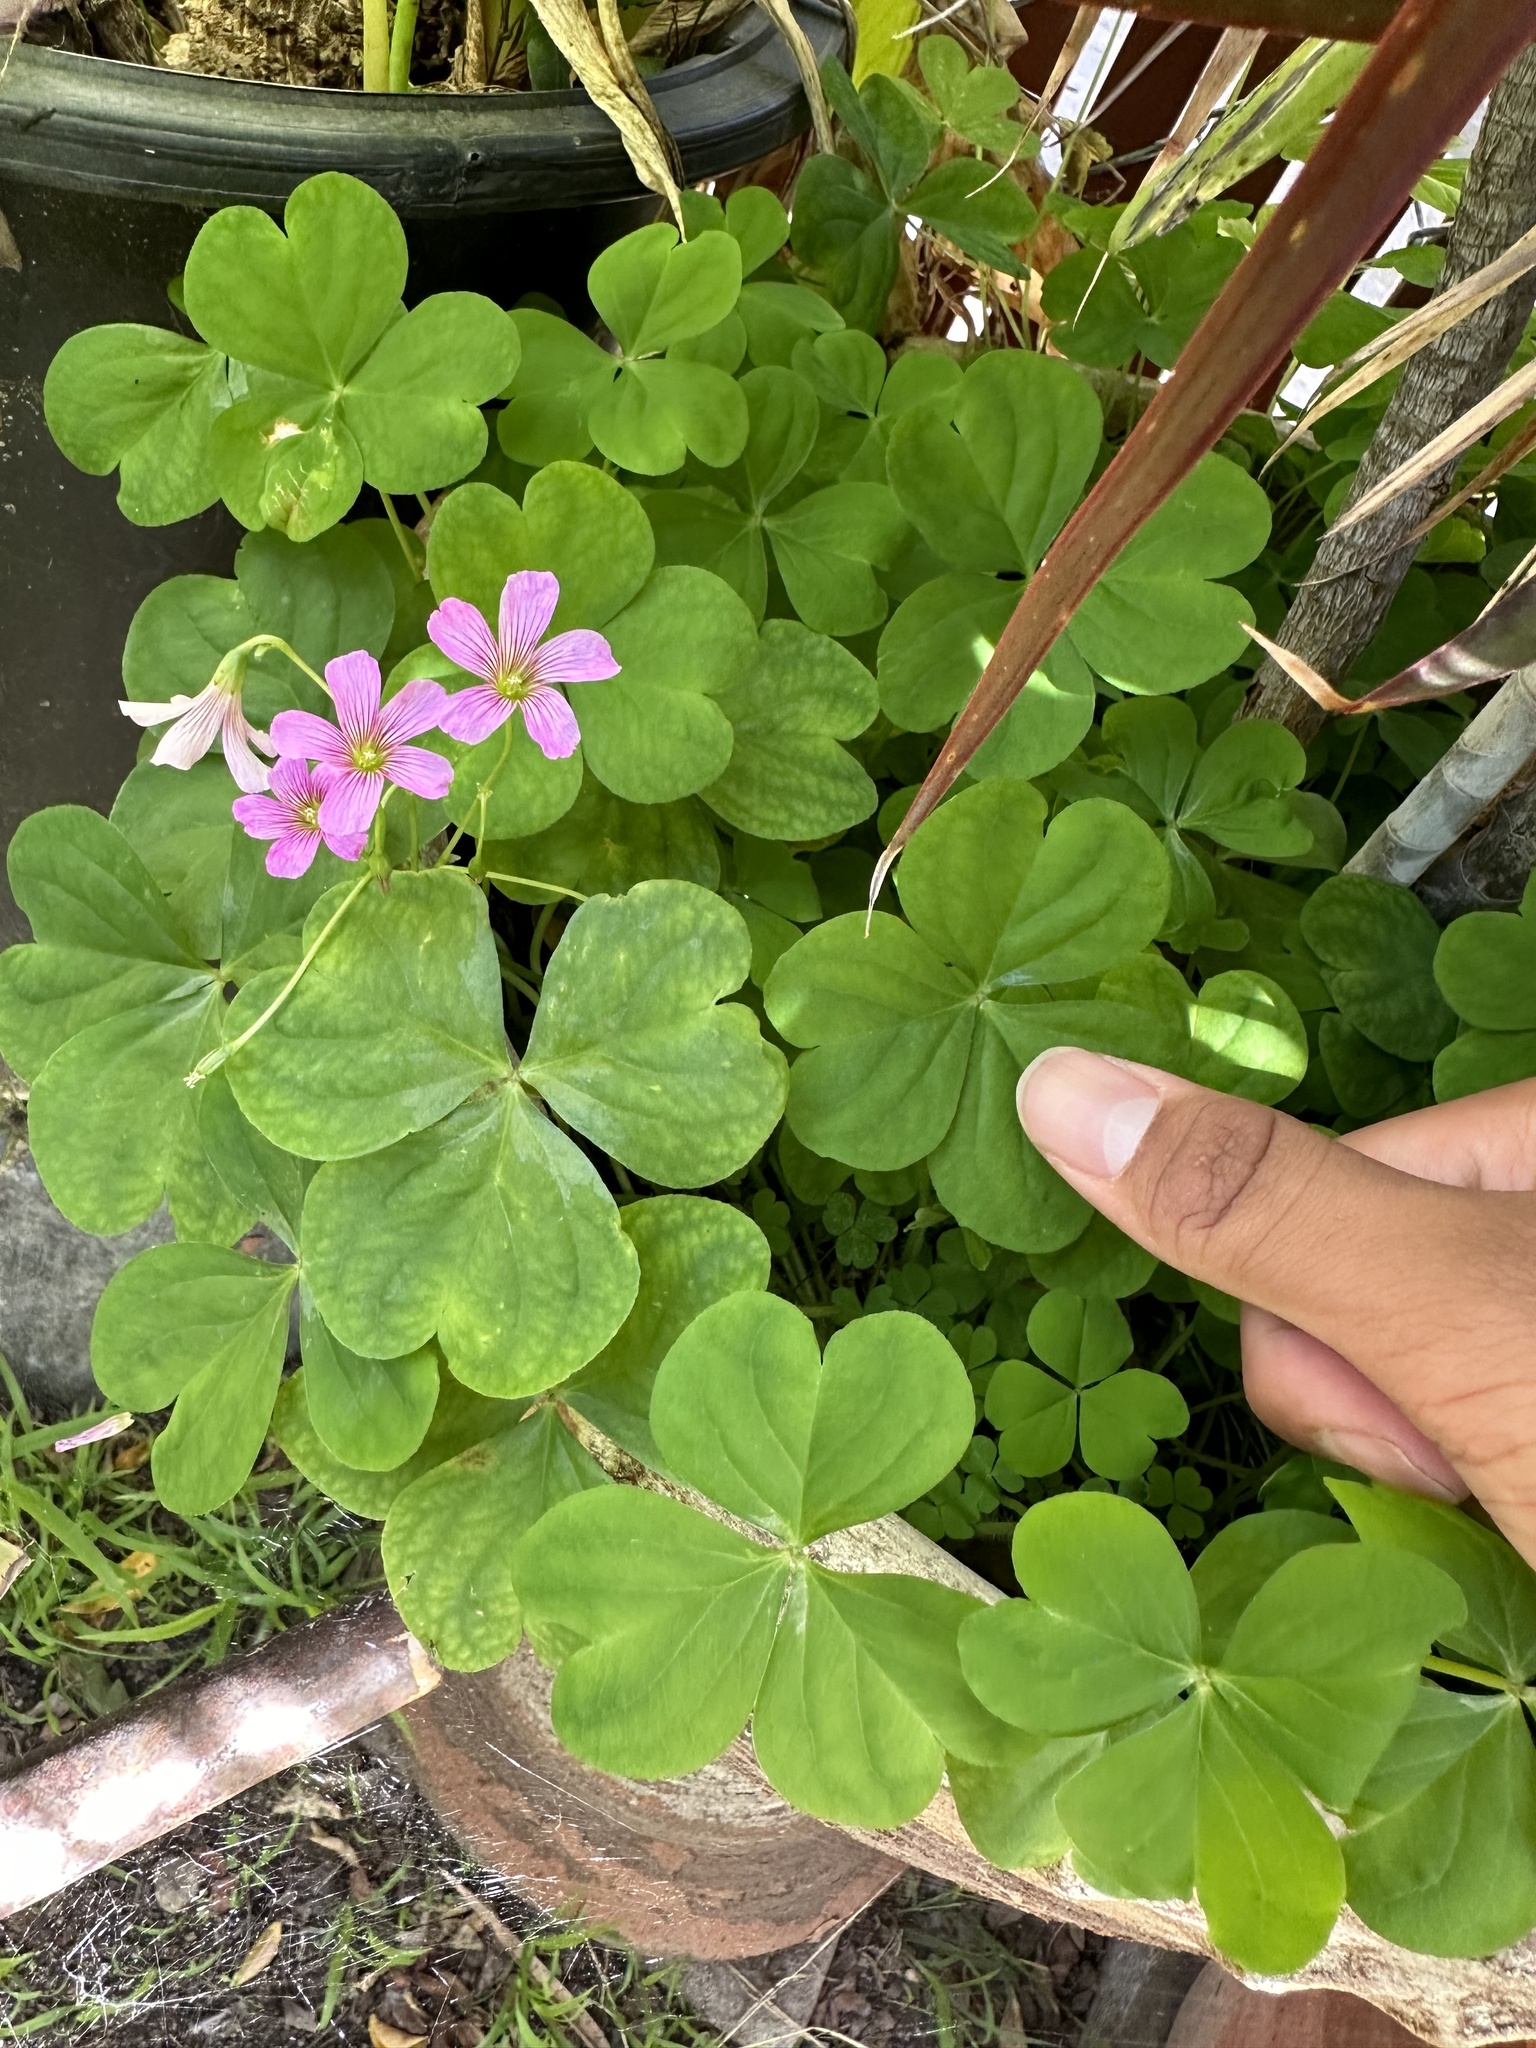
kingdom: Plantae
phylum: Tracheophyta
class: Magnoliopsida
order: Oxalidales
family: Oxalidaceae
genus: Oxalis
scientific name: Oxalis debilis
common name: Large-flowered pink-sorrel
